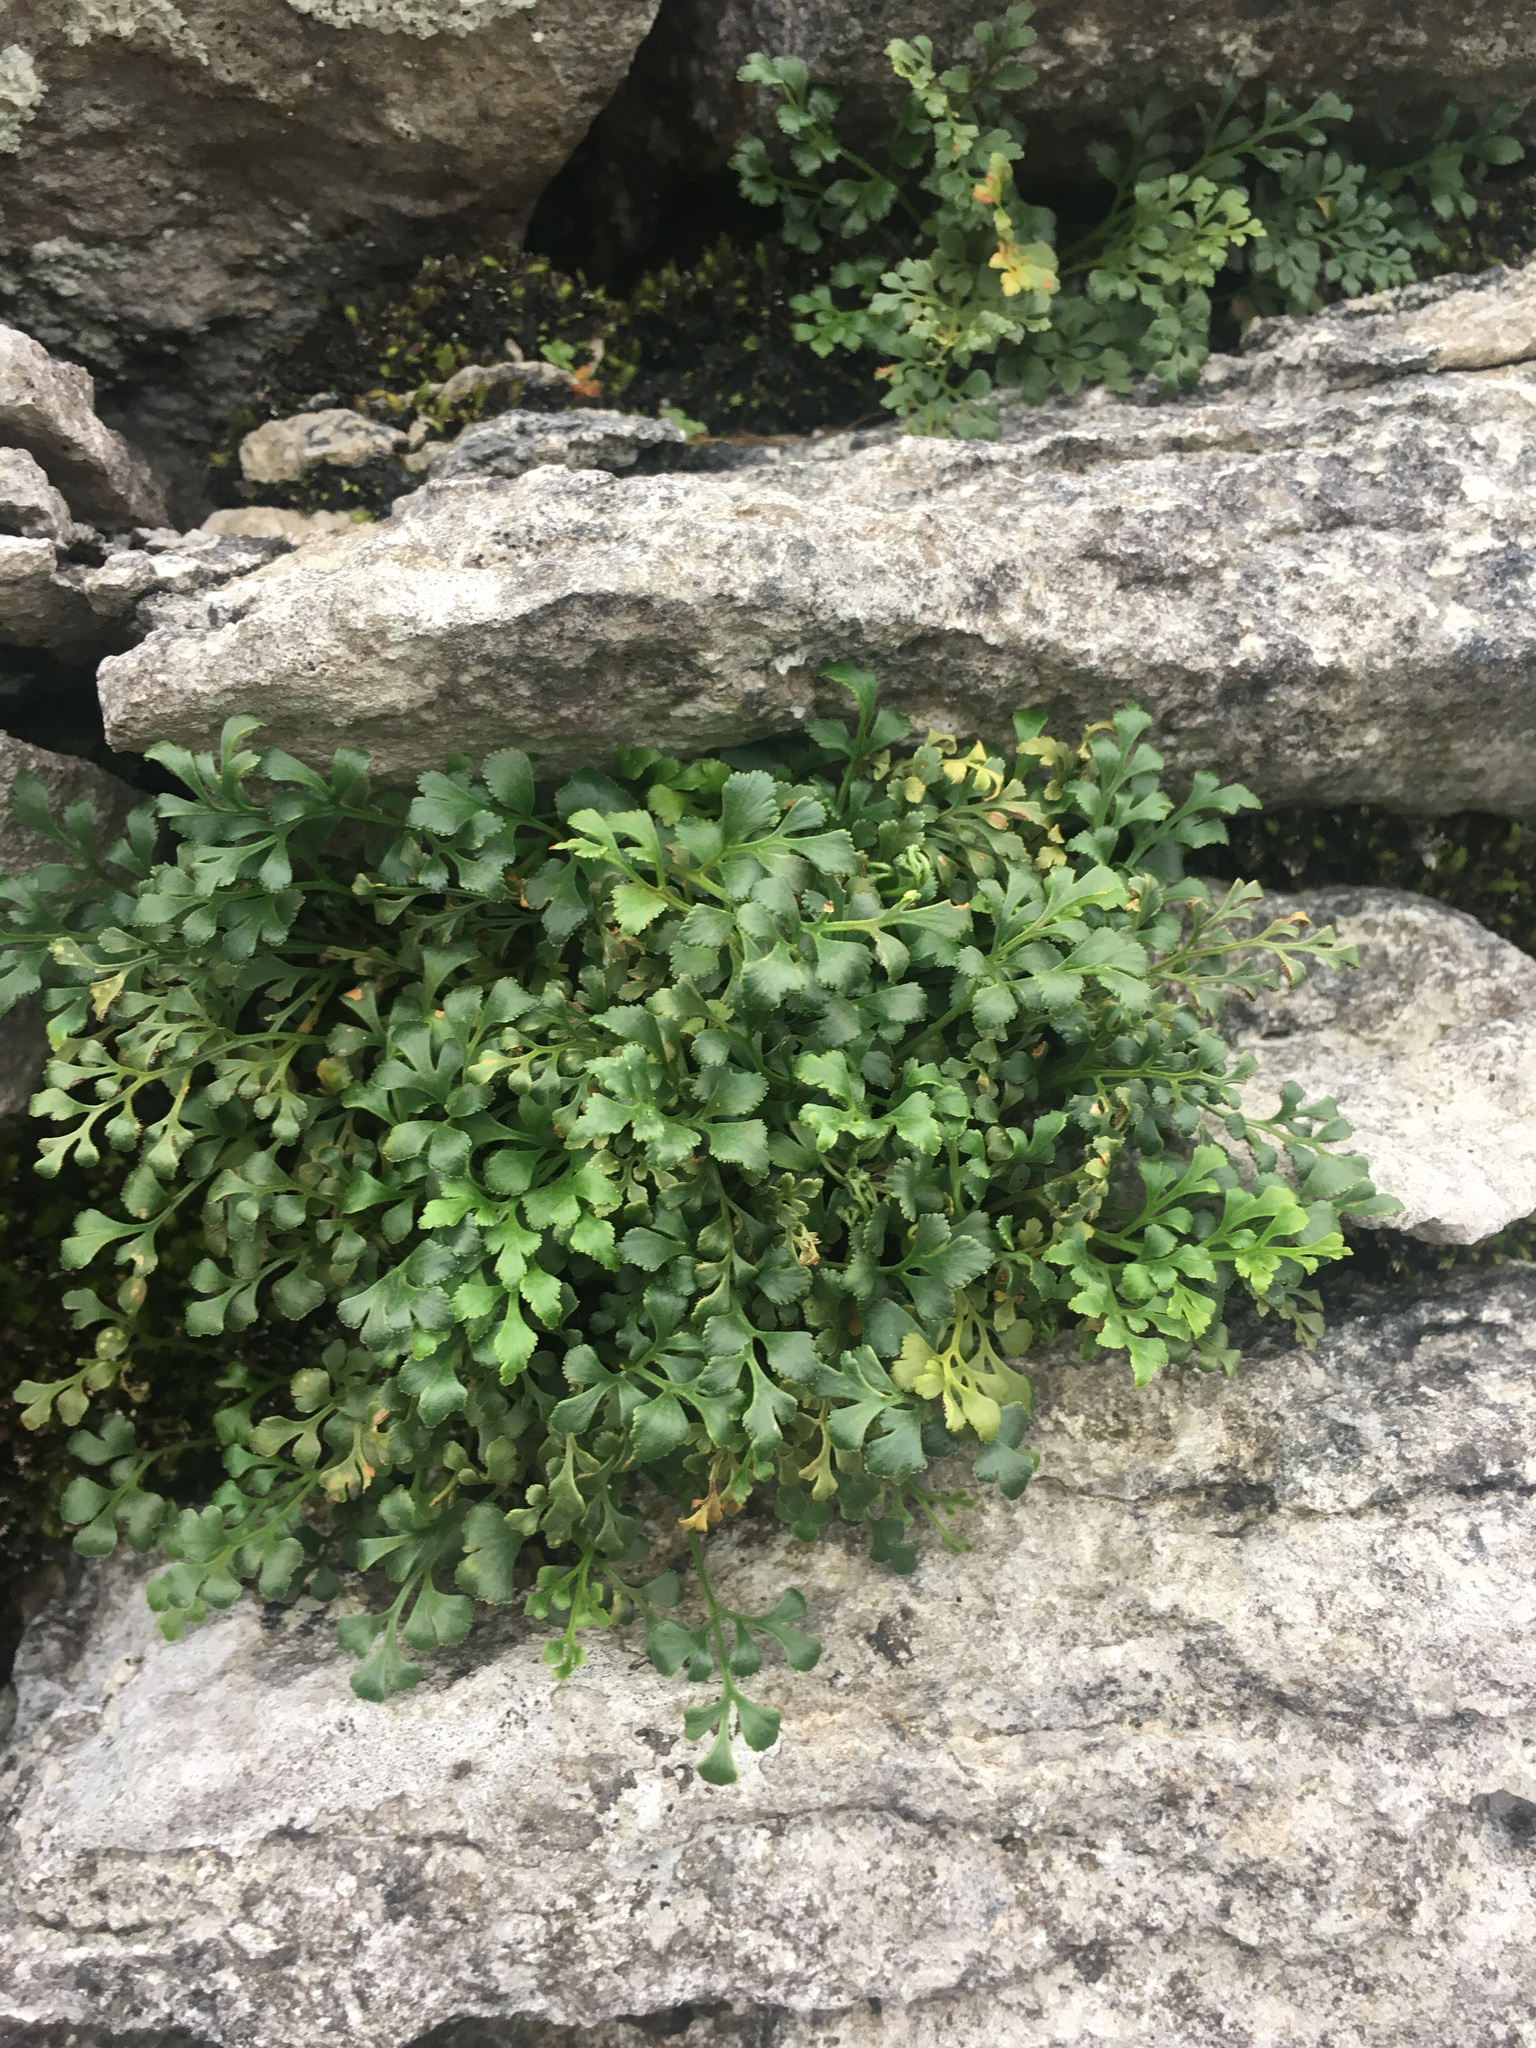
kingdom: Plantae
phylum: Tracheophyta
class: Polypodiopsida
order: Polypodiales
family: Aspleniaceae
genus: Asplenium
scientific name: Asplenium ruta-muraria
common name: Wall-rue
